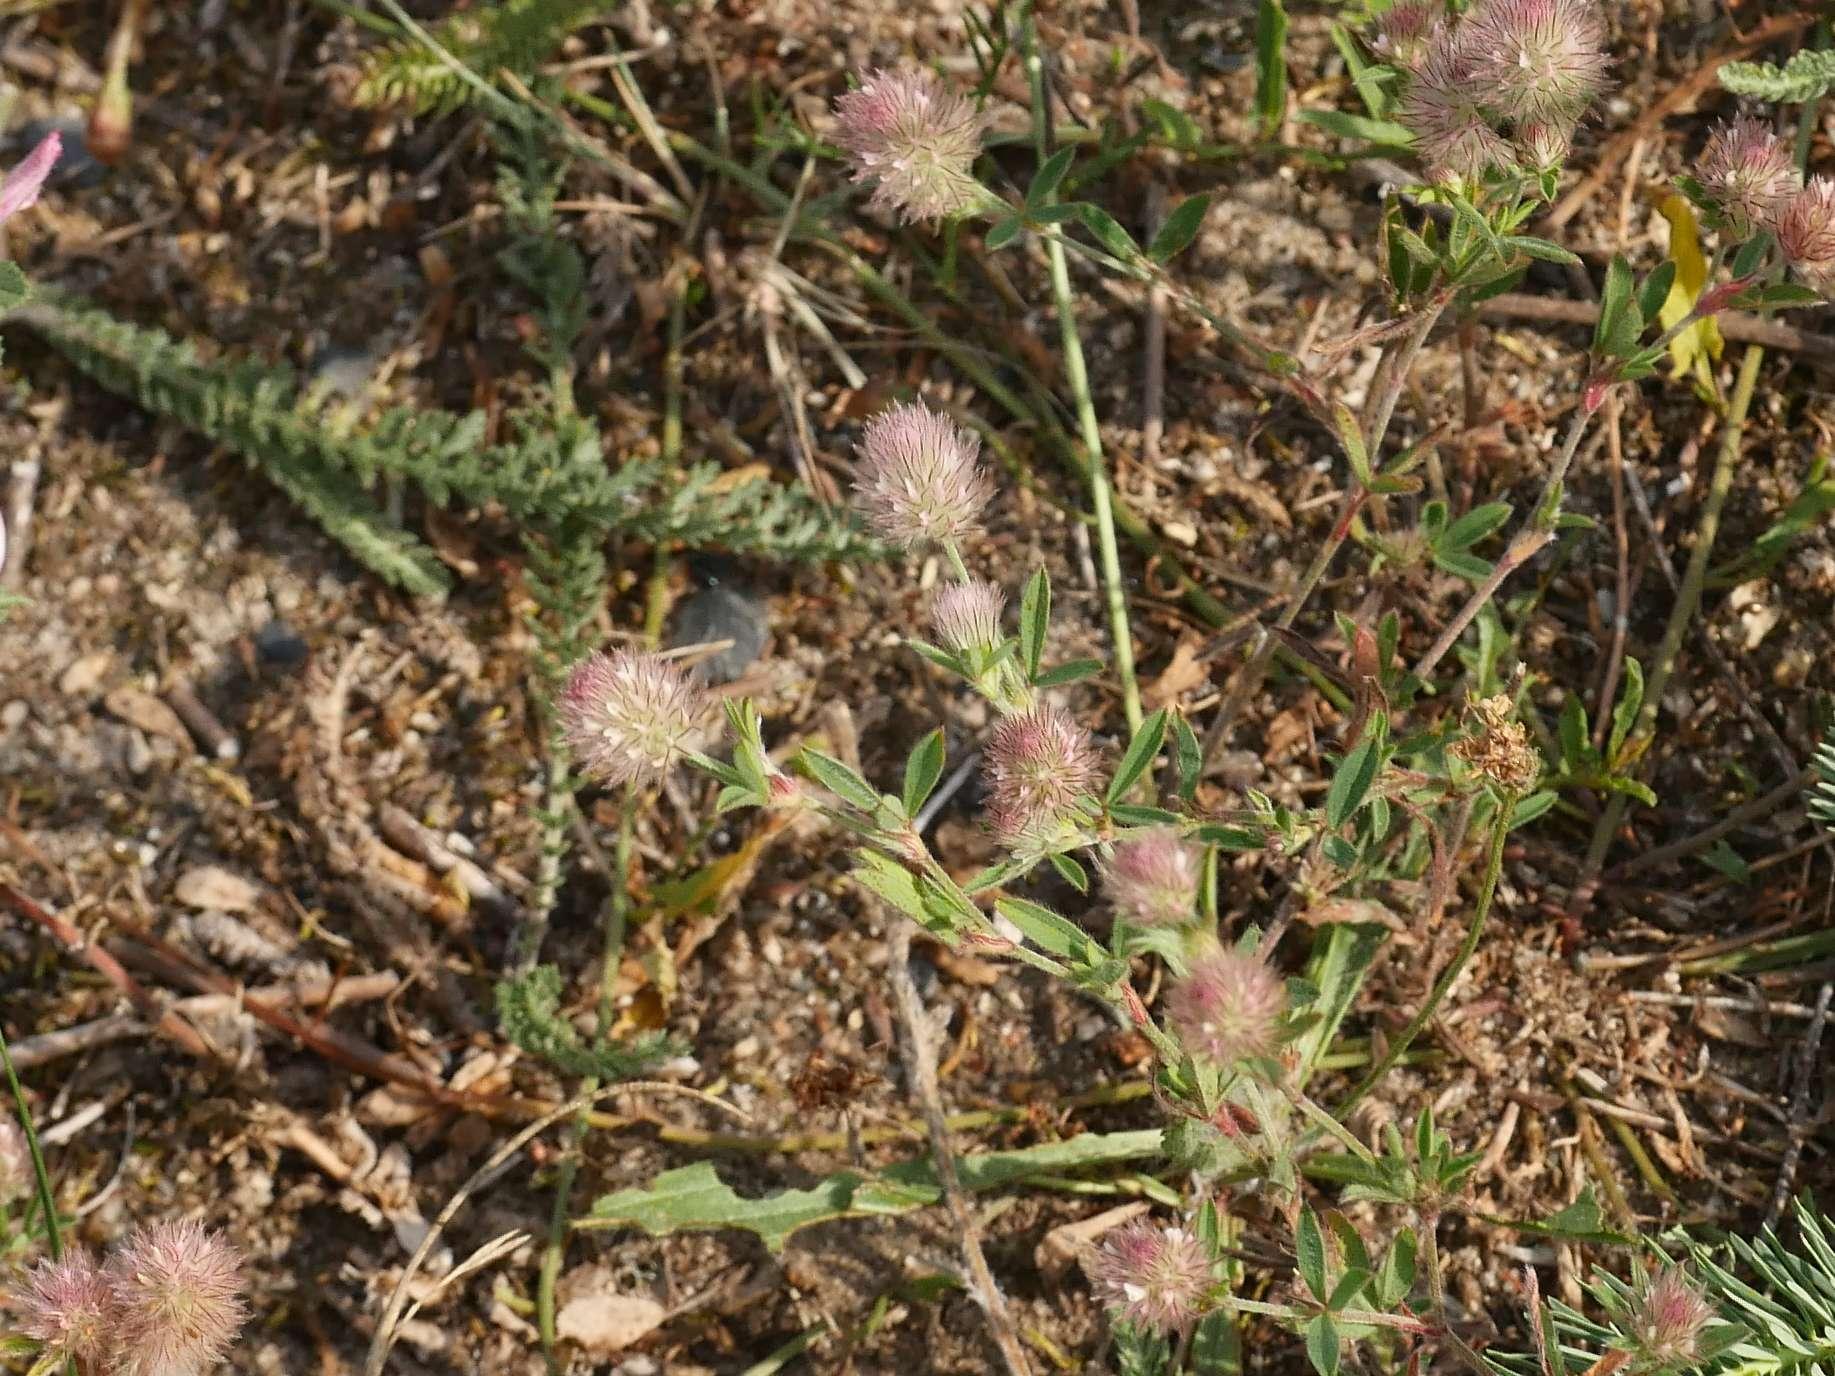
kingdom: Plantae
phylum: Tracheophyta
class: Magnoliopsida
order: Fabales
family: Fabaceae
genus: Trifolium
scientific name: Trifolium arvense
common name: Hare's-foot clover
